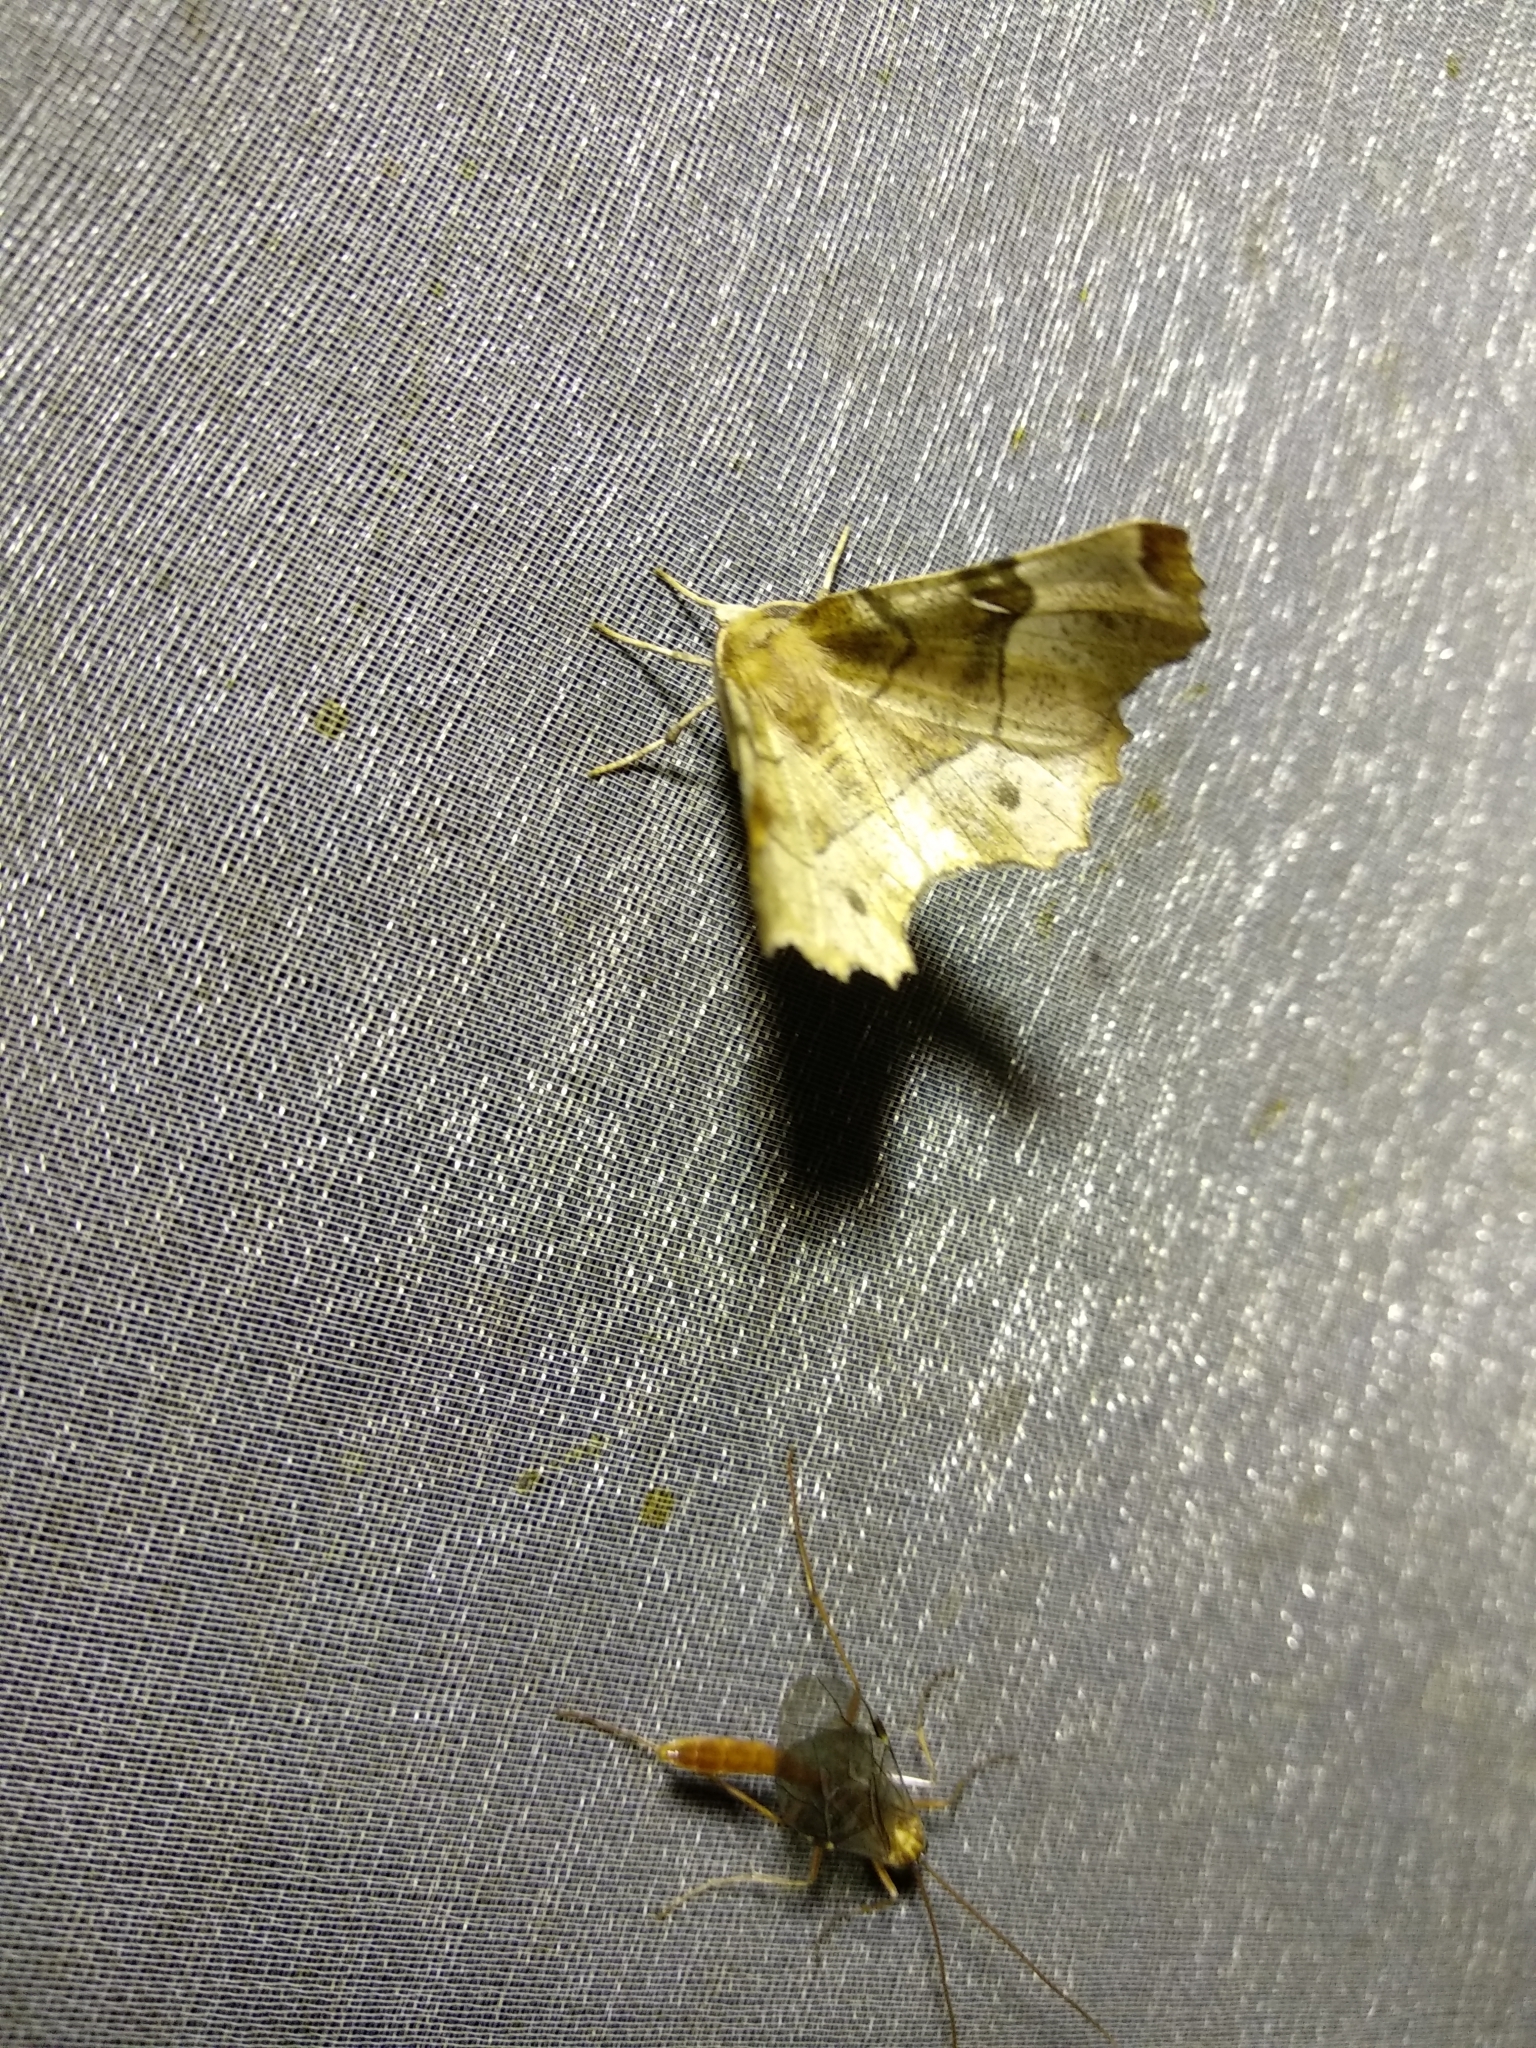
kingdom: Animalia
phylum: Arthropoda
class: Insecta
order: Lepidoptera
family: Geometridae
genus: Selenia
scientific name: Selenia tetralunaria
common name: Purple thorn
